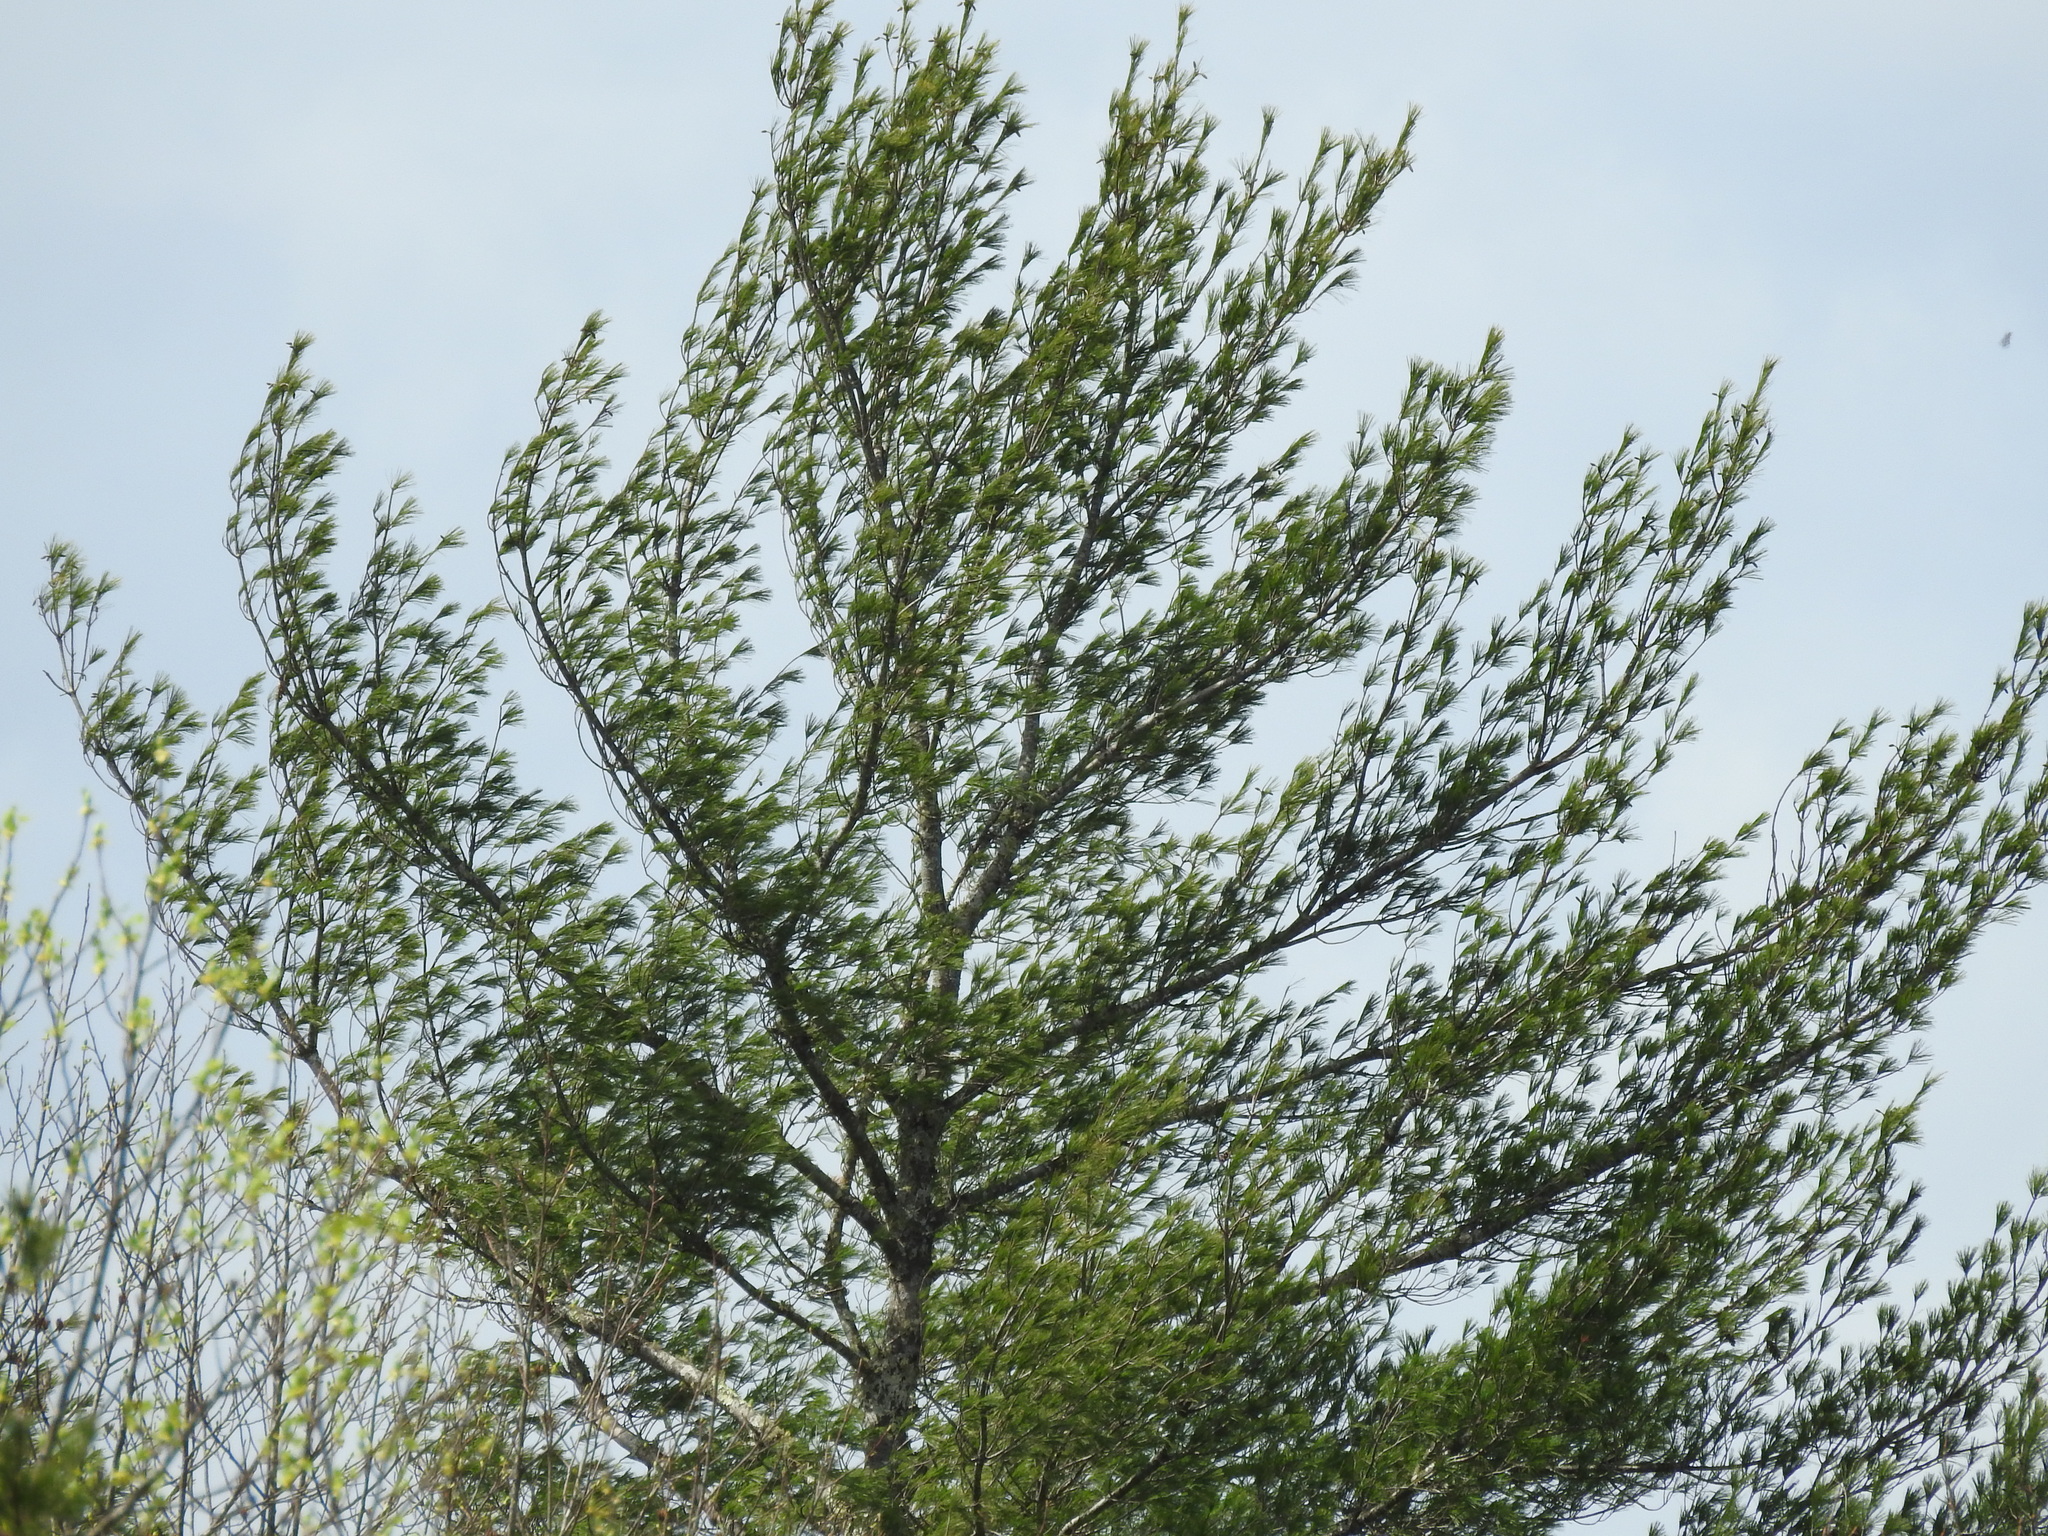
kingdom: Plantae
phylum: Tracheophyta
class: Pinopsida
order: Pinales
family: Pinaceae
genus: Pinus
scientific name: Pinus strobus
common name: Weymouth pine
